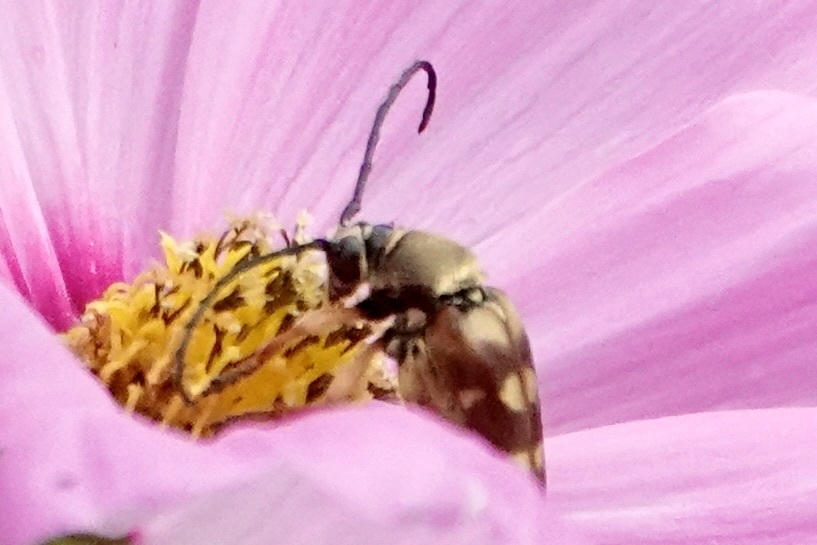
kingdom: Animalia
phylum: Arthropoda
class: Insecta
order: Coleoptera
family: Cerambycidae
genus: Typocerus
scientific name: Typocerus velutinus
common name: Banded longhorn beetle
